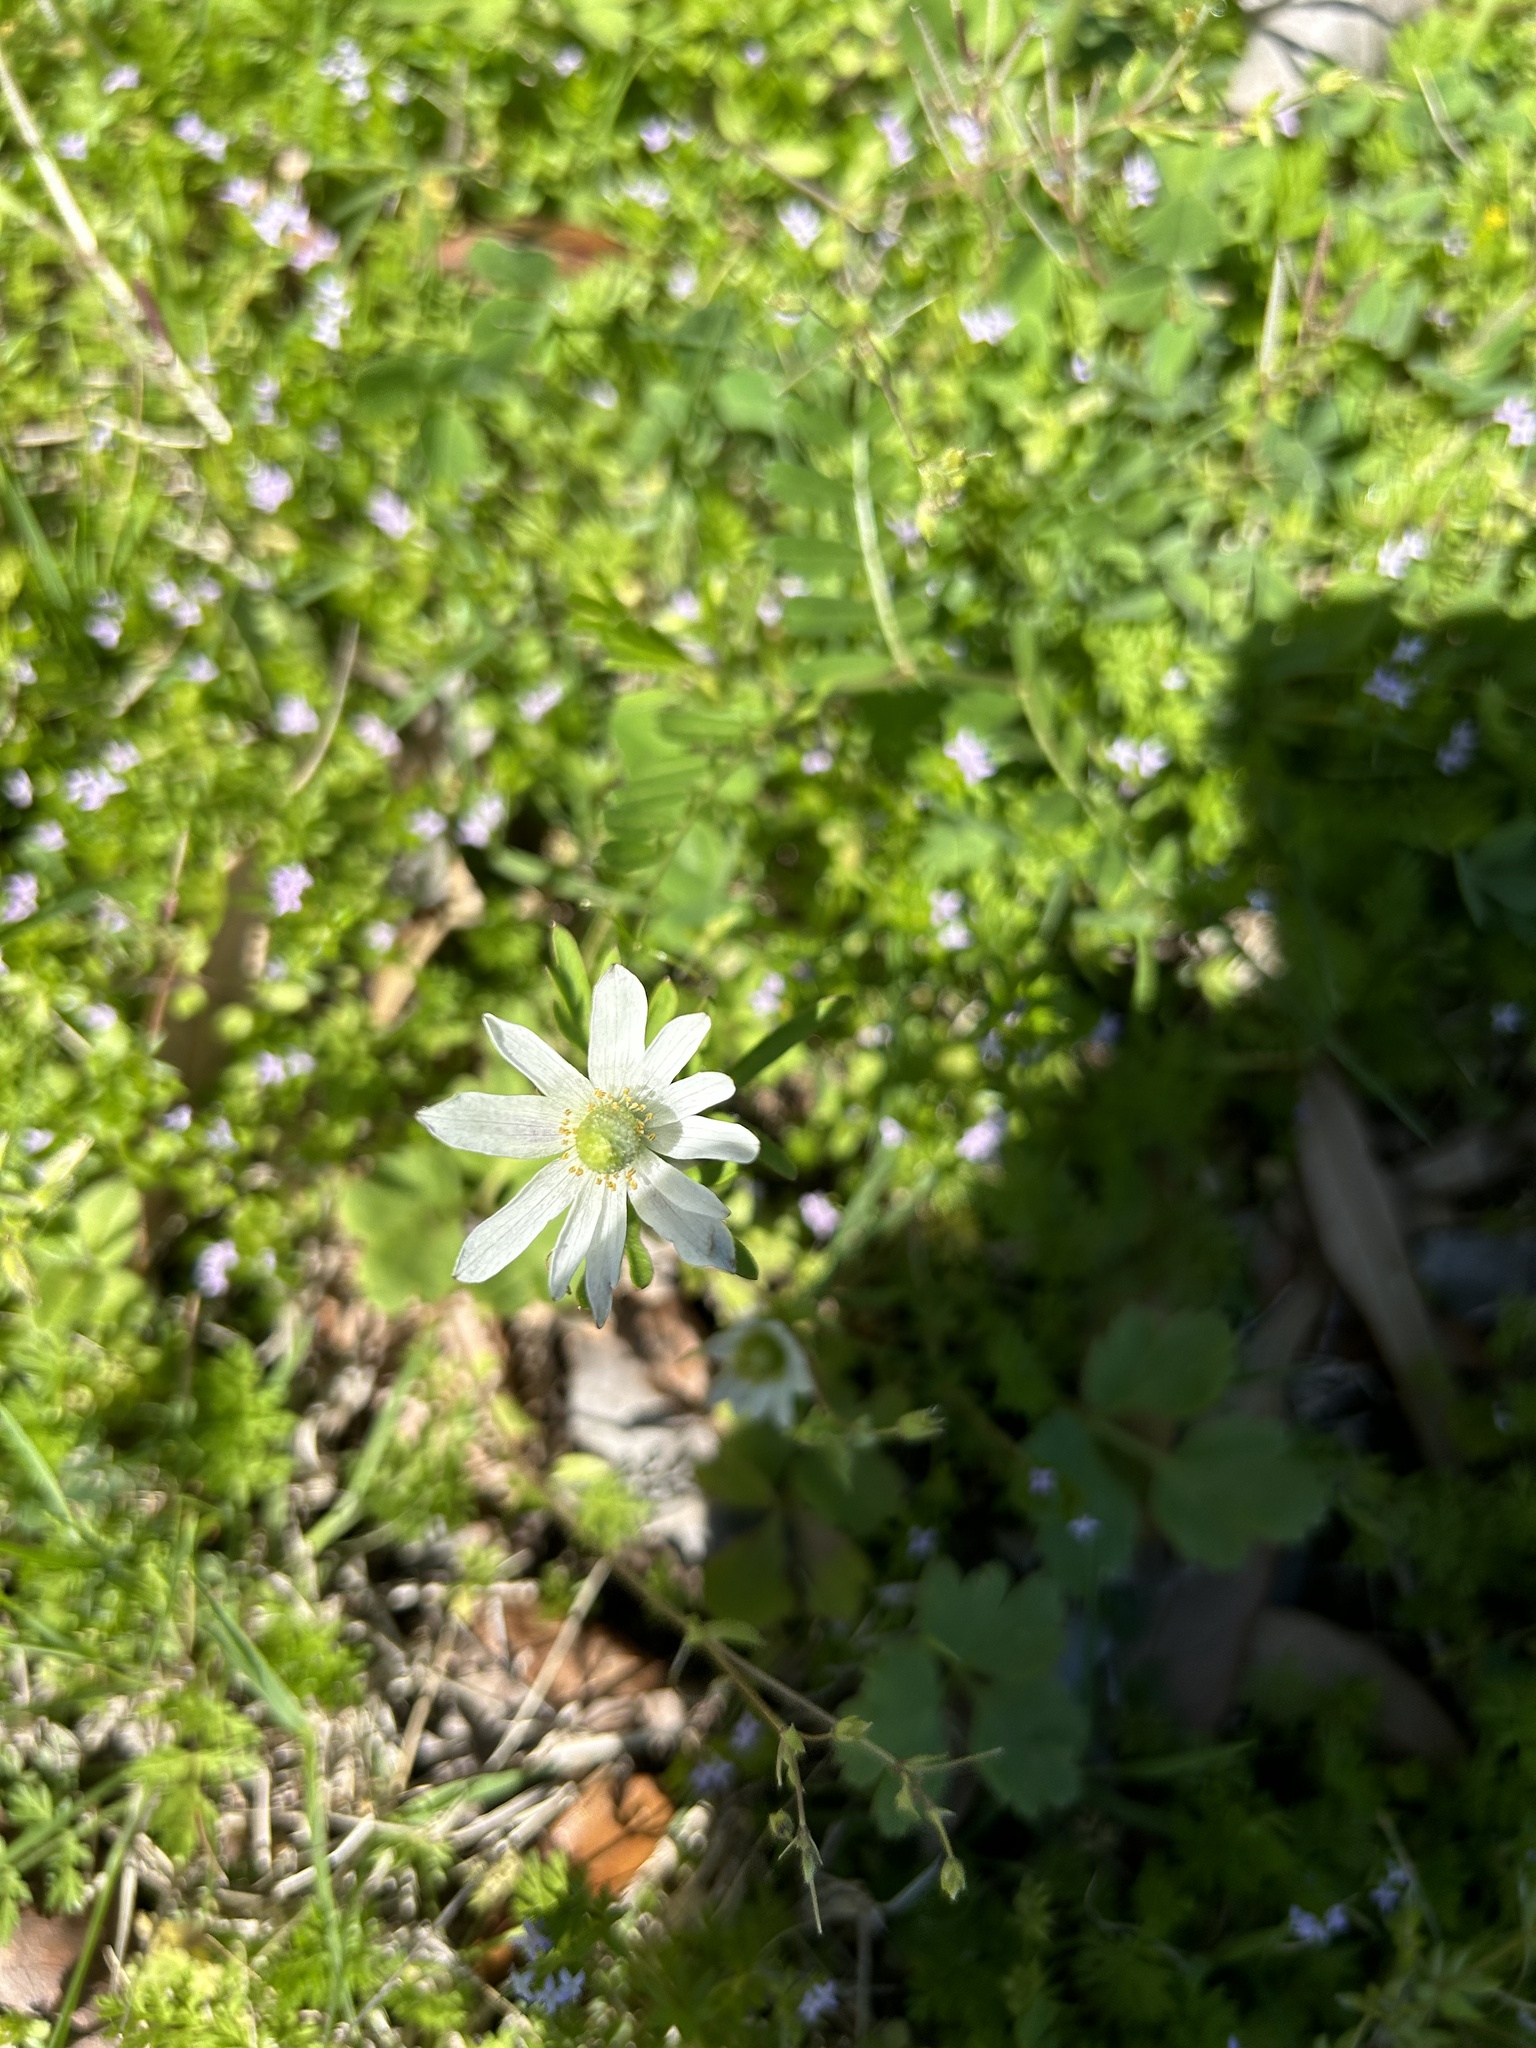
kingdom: Plantae
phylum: Tracheophyta
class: Magnoliopsida
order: Ranunculales
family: Ranunculaceae
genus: Anemone
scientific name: Anemone berlandieri
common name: Ten-petal anemone
